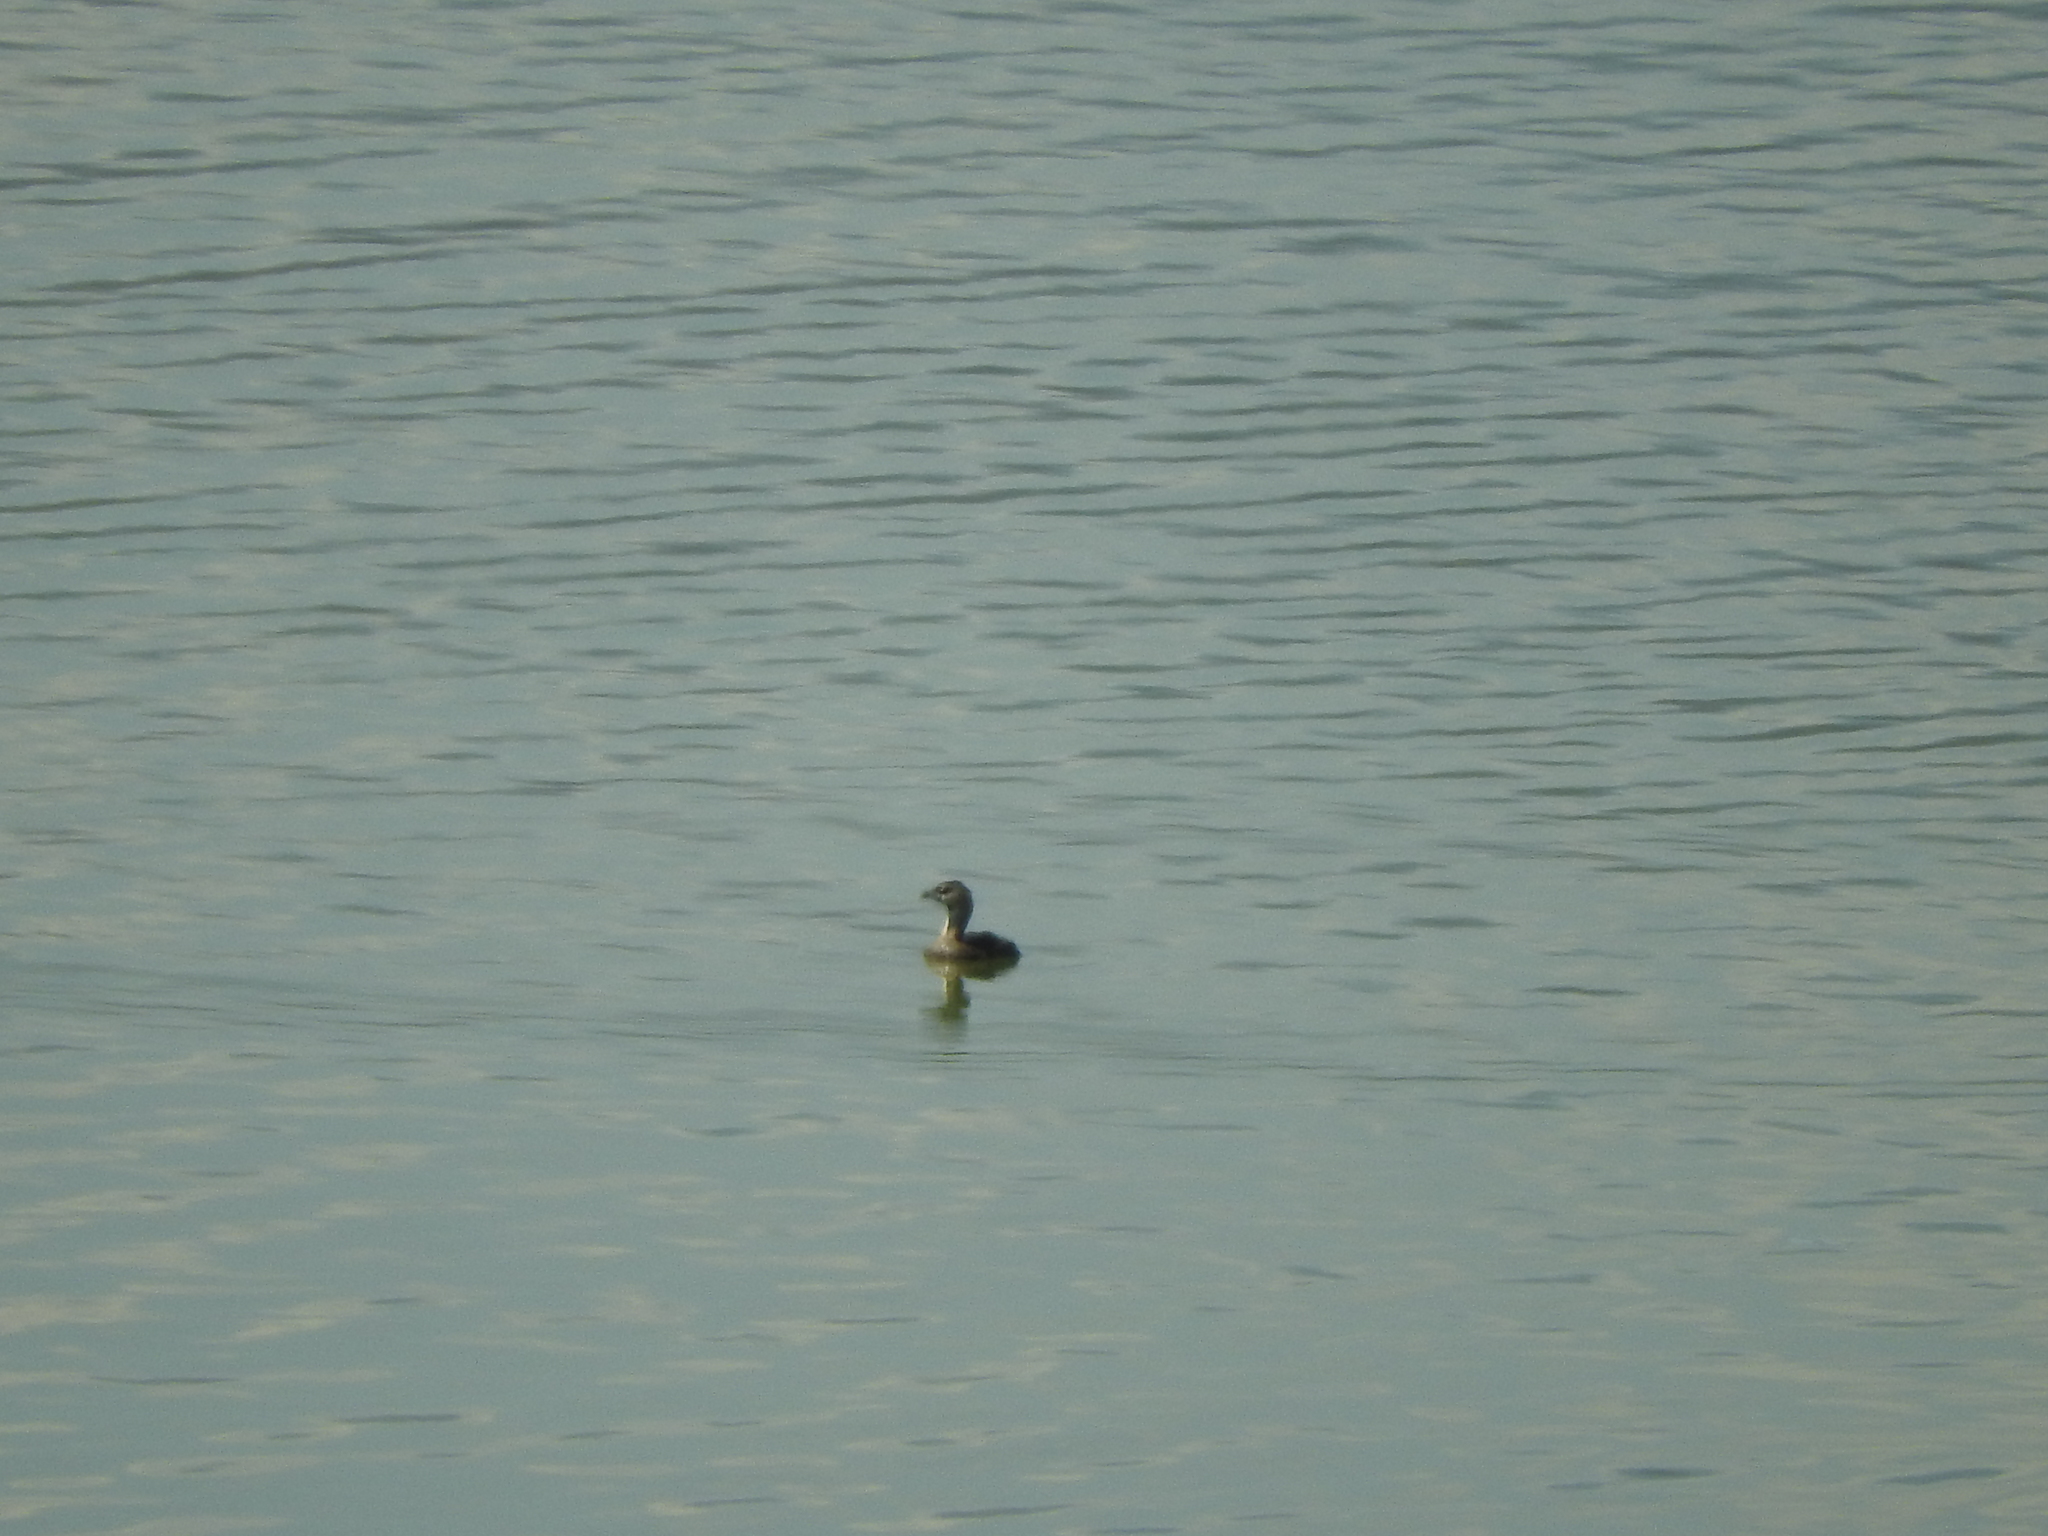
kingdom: Animalia
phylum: Chordata
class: Aves
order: Podicipediformes
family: Podicipedidae
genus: Podilymbus
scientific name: Podilymbus podiceps
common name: Pied-billed grebe
